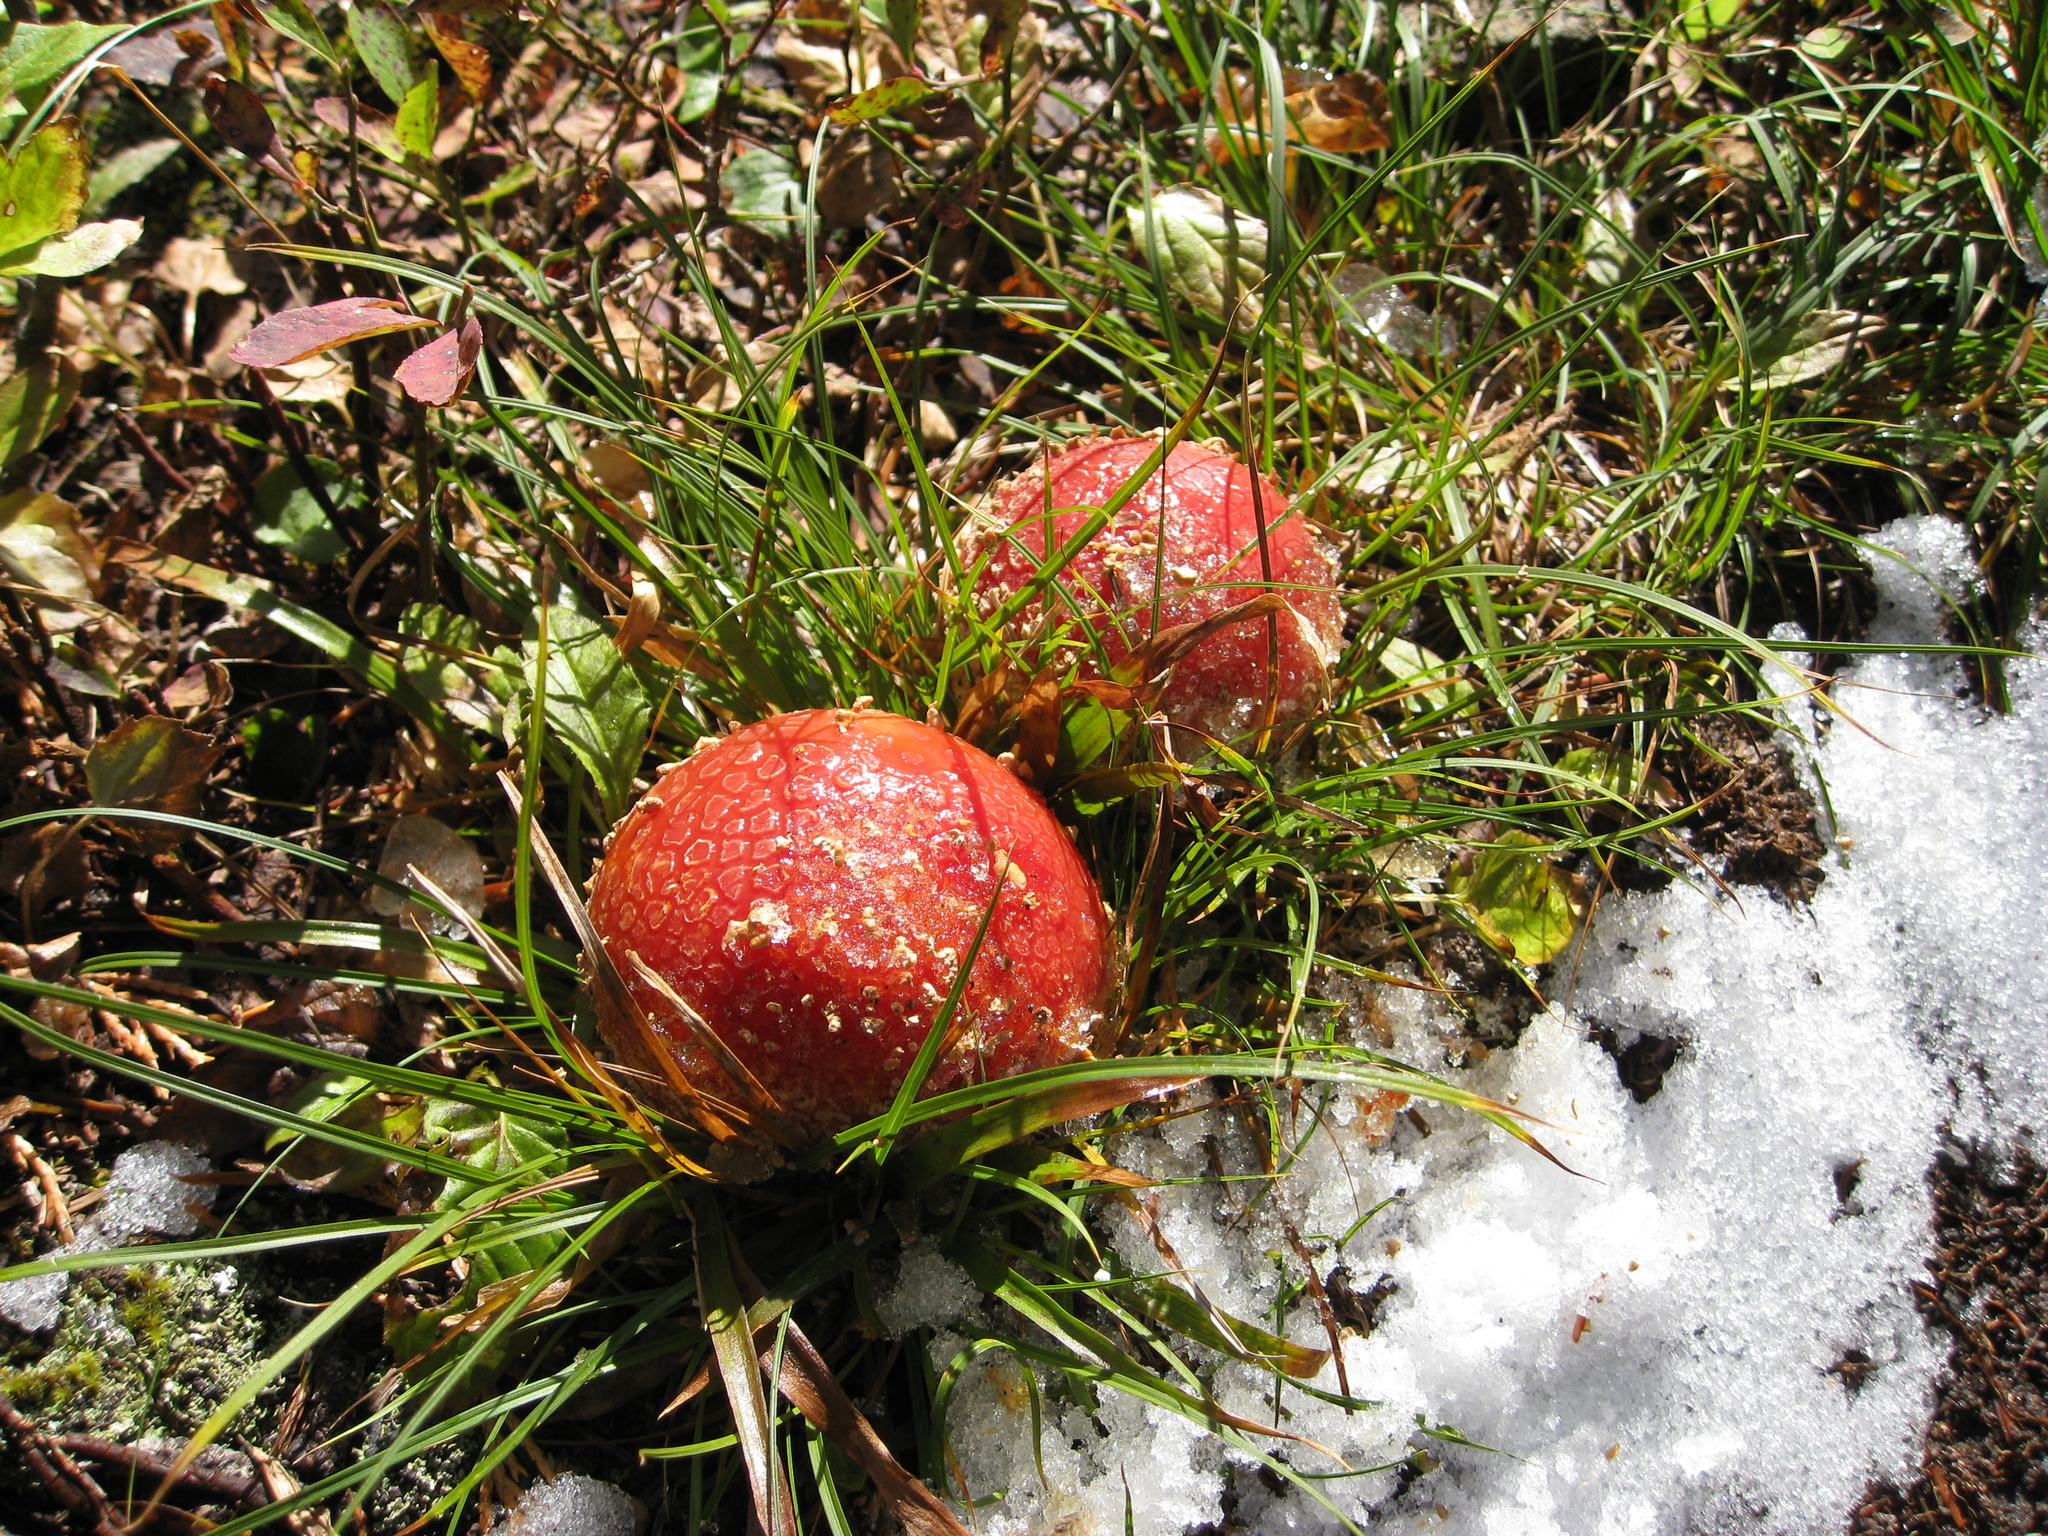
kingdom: Fungi
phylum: Basidiomycota
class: Agaricomycetes
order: Agaricales
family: Amanitaceae
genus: Amanita
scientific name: Amanita muscaria
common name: Fly agaric
